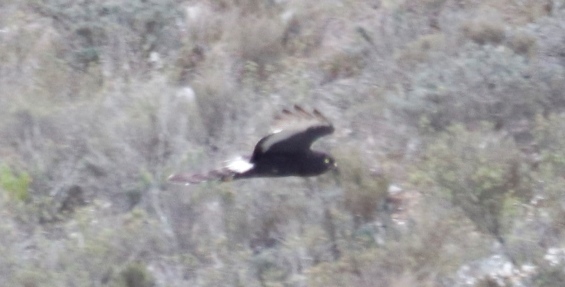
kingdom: Animalia
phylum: Chordata
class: Aves
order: Accipitriformes
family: Accipitridae
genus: Circus
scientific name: Circus maurus
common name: Black harrier
